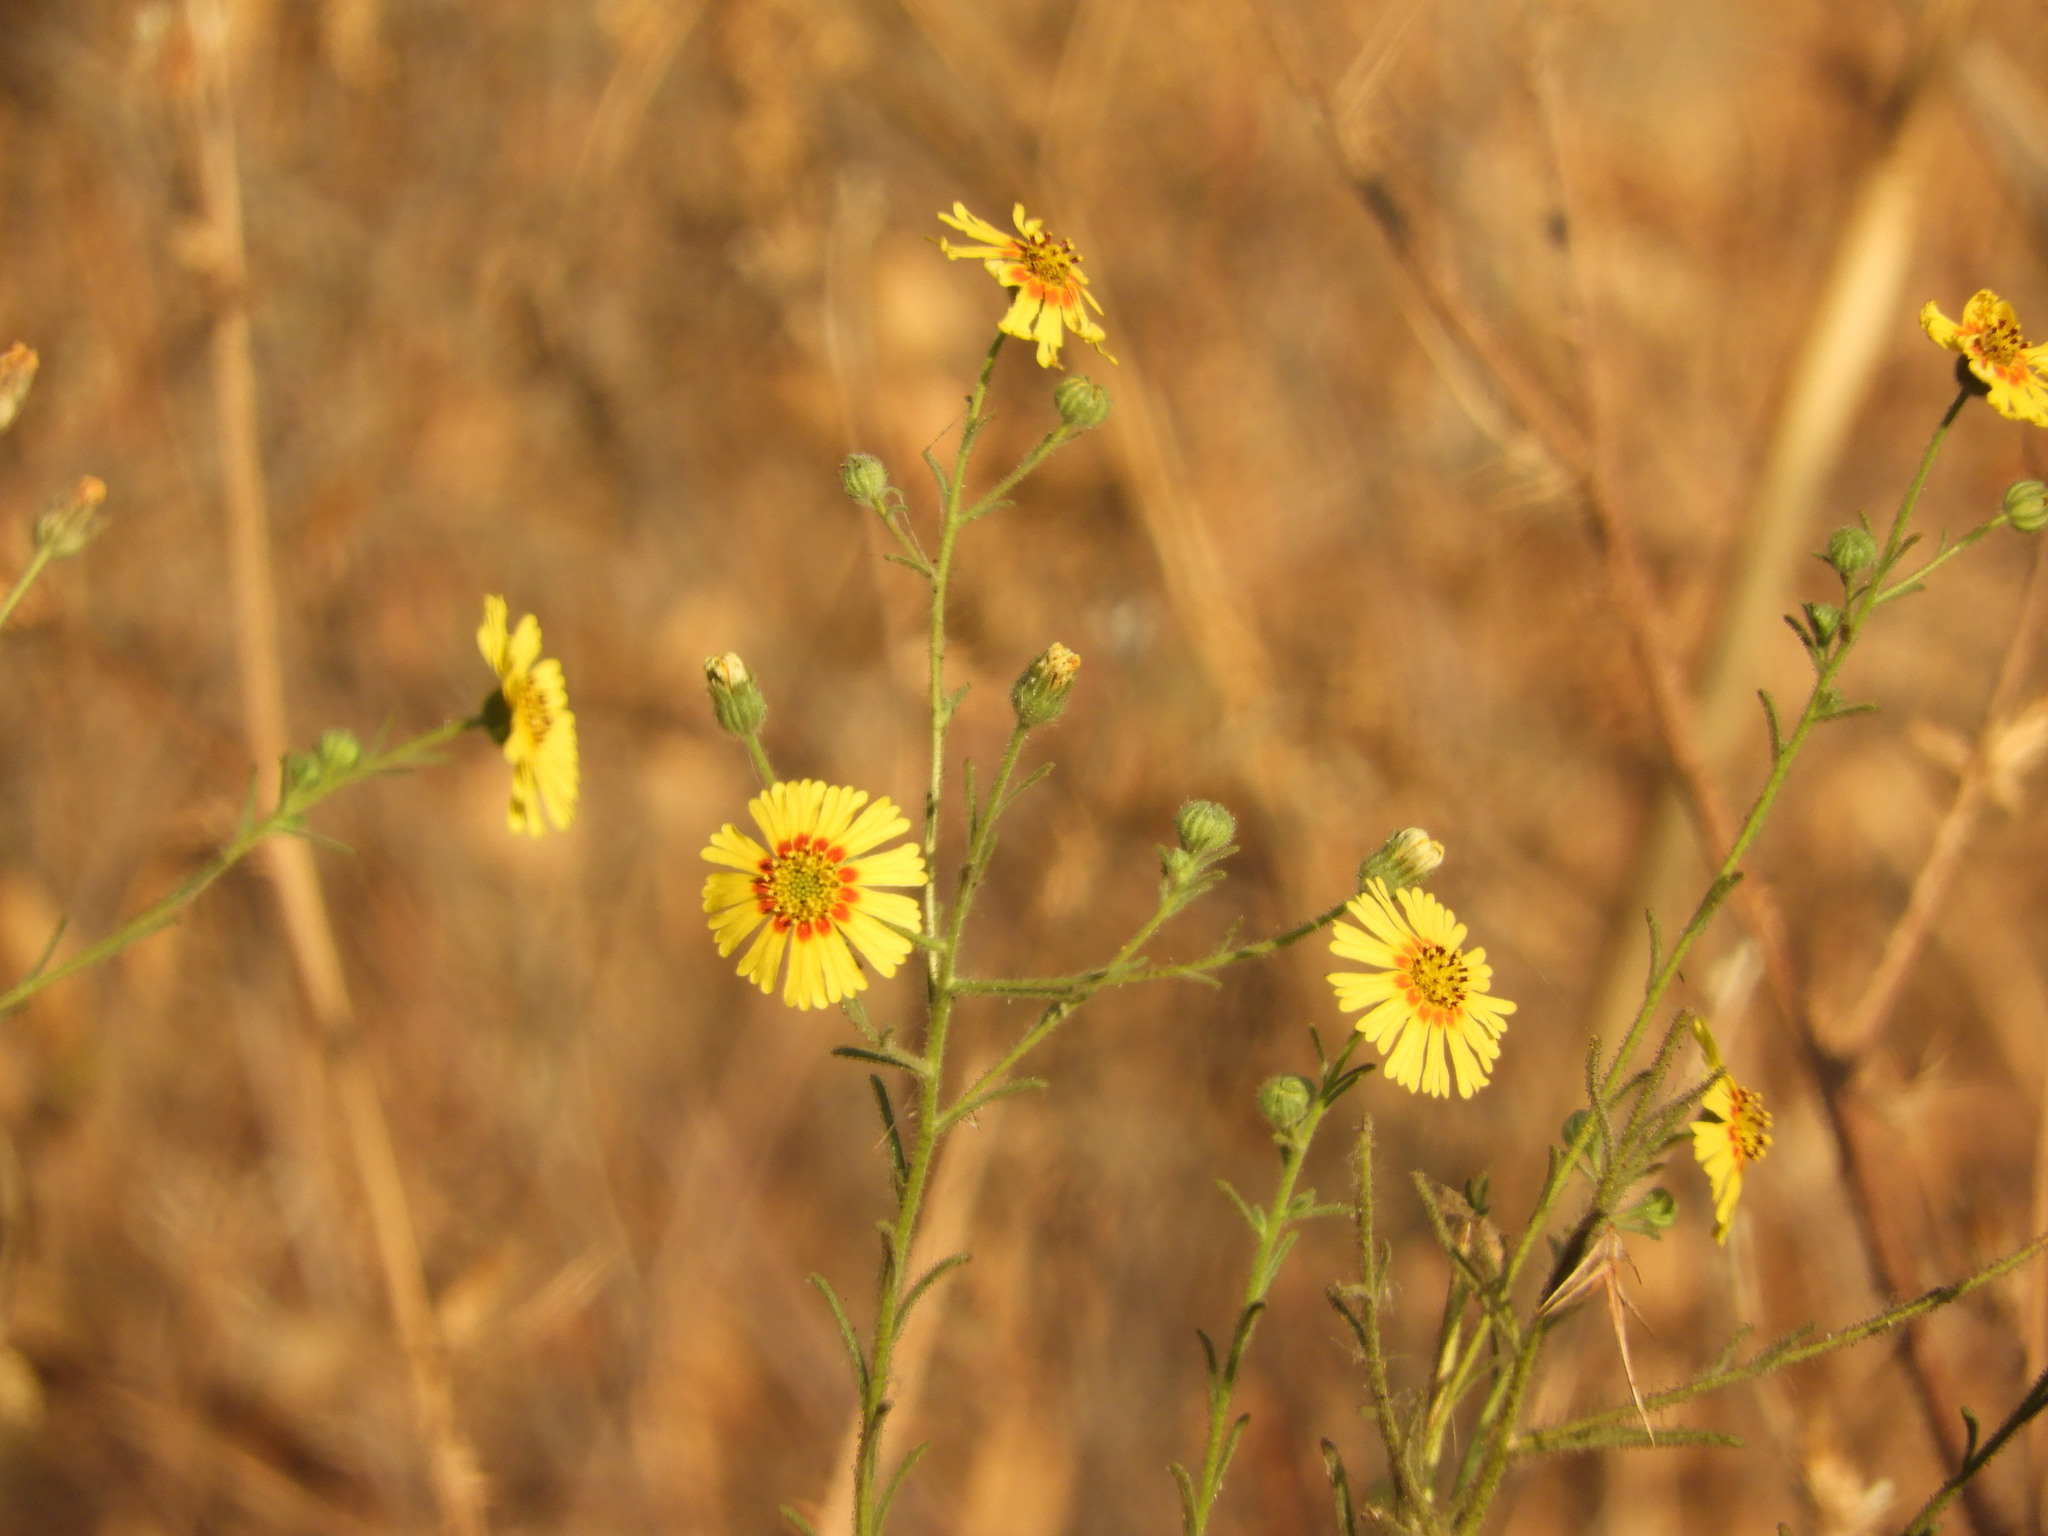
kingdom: Plantae
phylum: Tracheophyta
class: Magnoliopsida
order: Asterales
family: Asteraceae
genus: Madia
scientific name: Madia elegans
